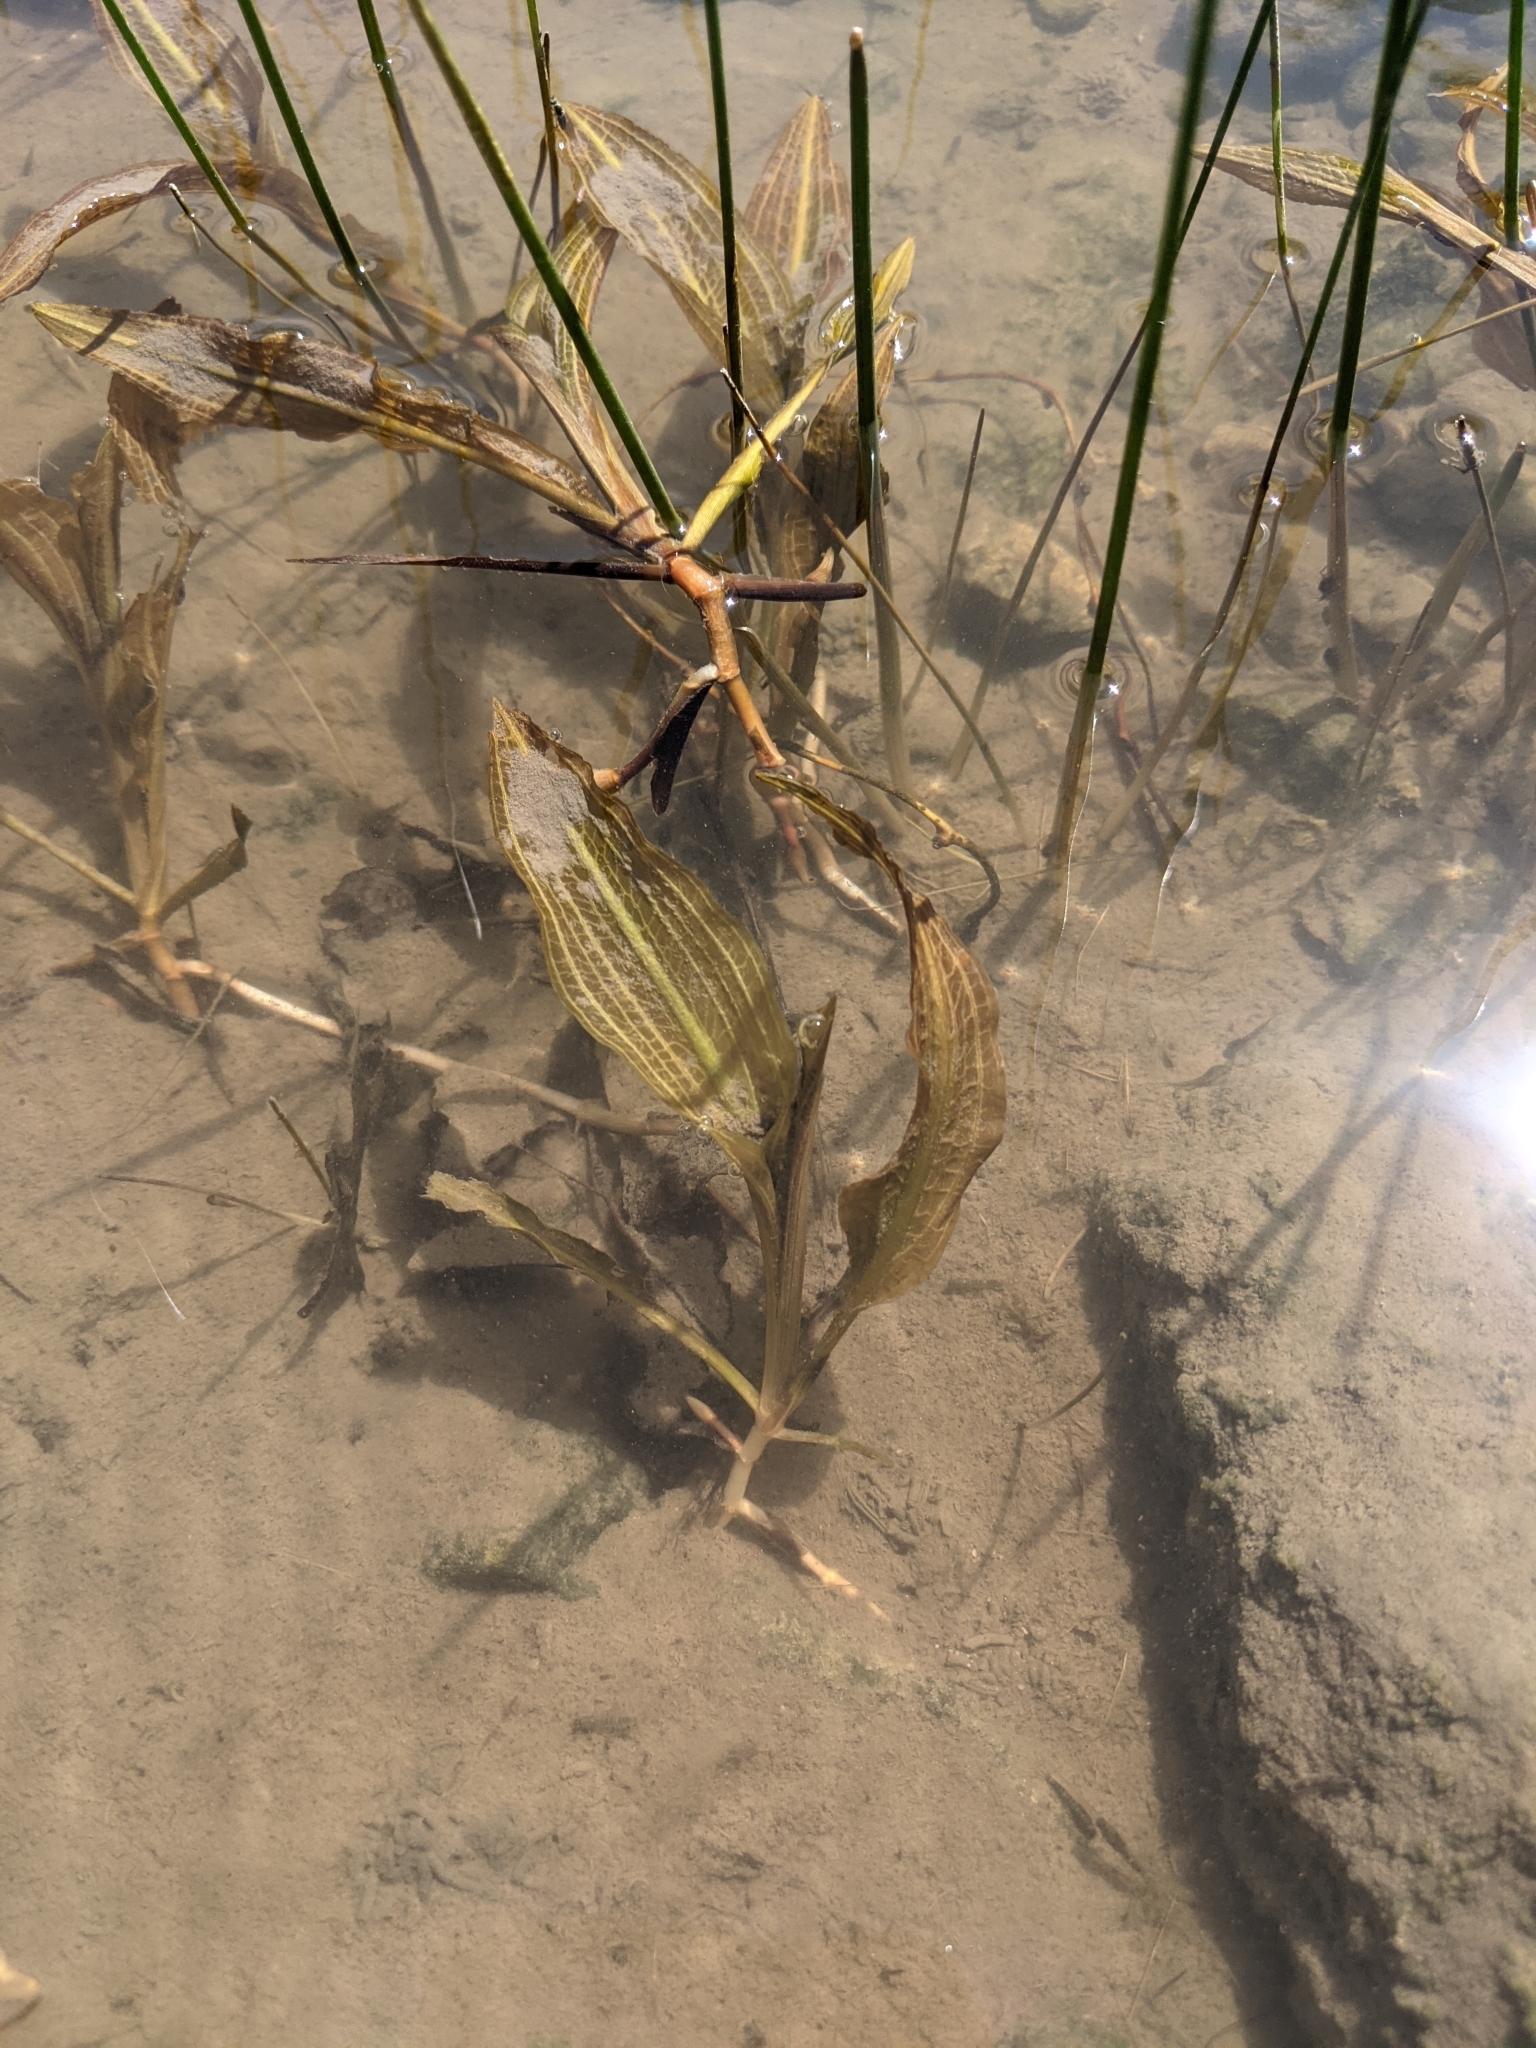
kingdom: Plantae
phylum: Tracheophyta
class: Liliopsida
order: Alismatales
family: Potamogetonaceae
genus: Potamogeton
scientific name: Potamogeton lucens
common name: Shining pondweed
